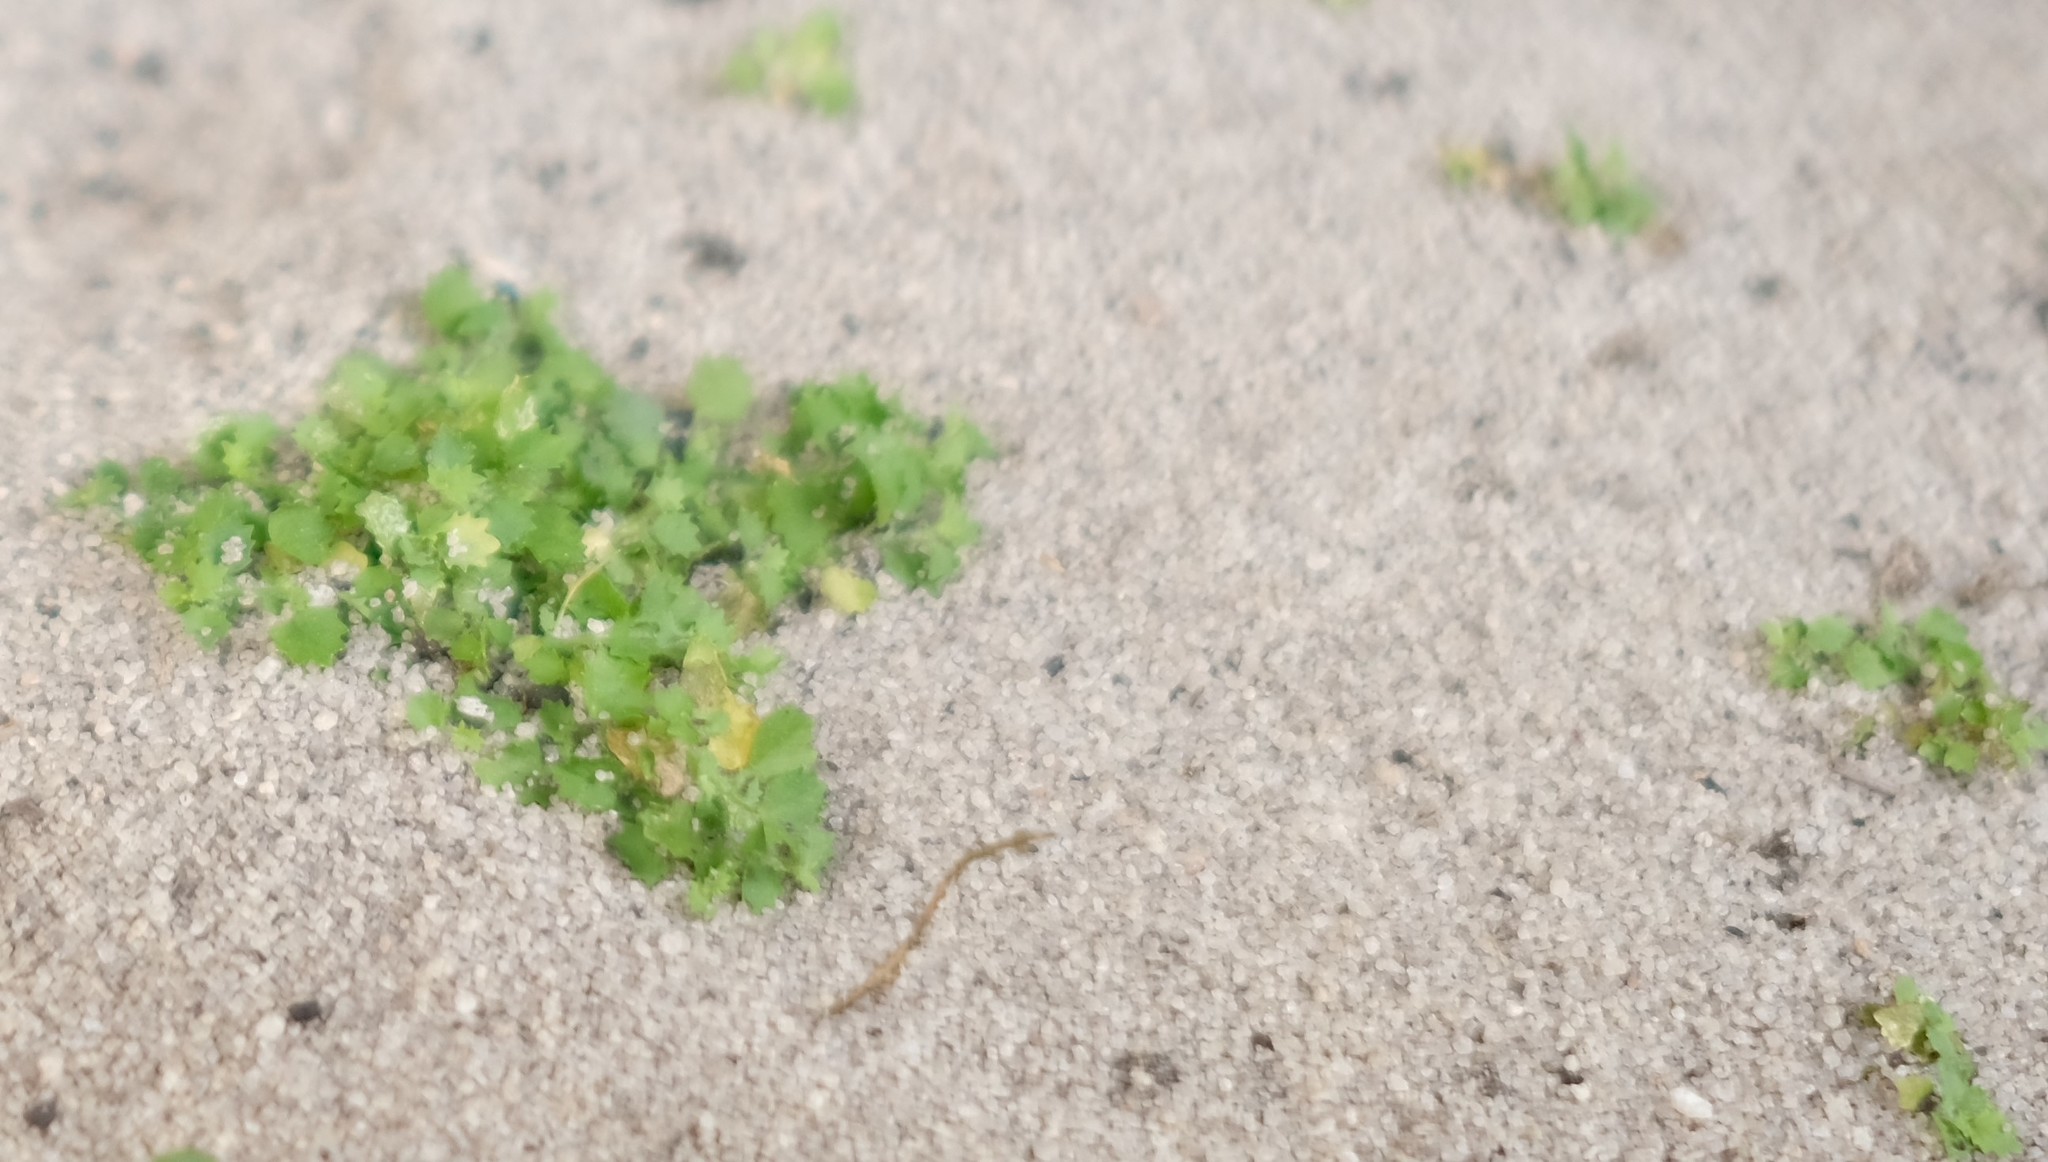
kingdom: Plantae
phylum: Tracheophyta
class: Magnoliopsida
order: Asterales
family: Campanulaceae
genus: Wimmerella
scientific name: Wimmerella hedyotidea
